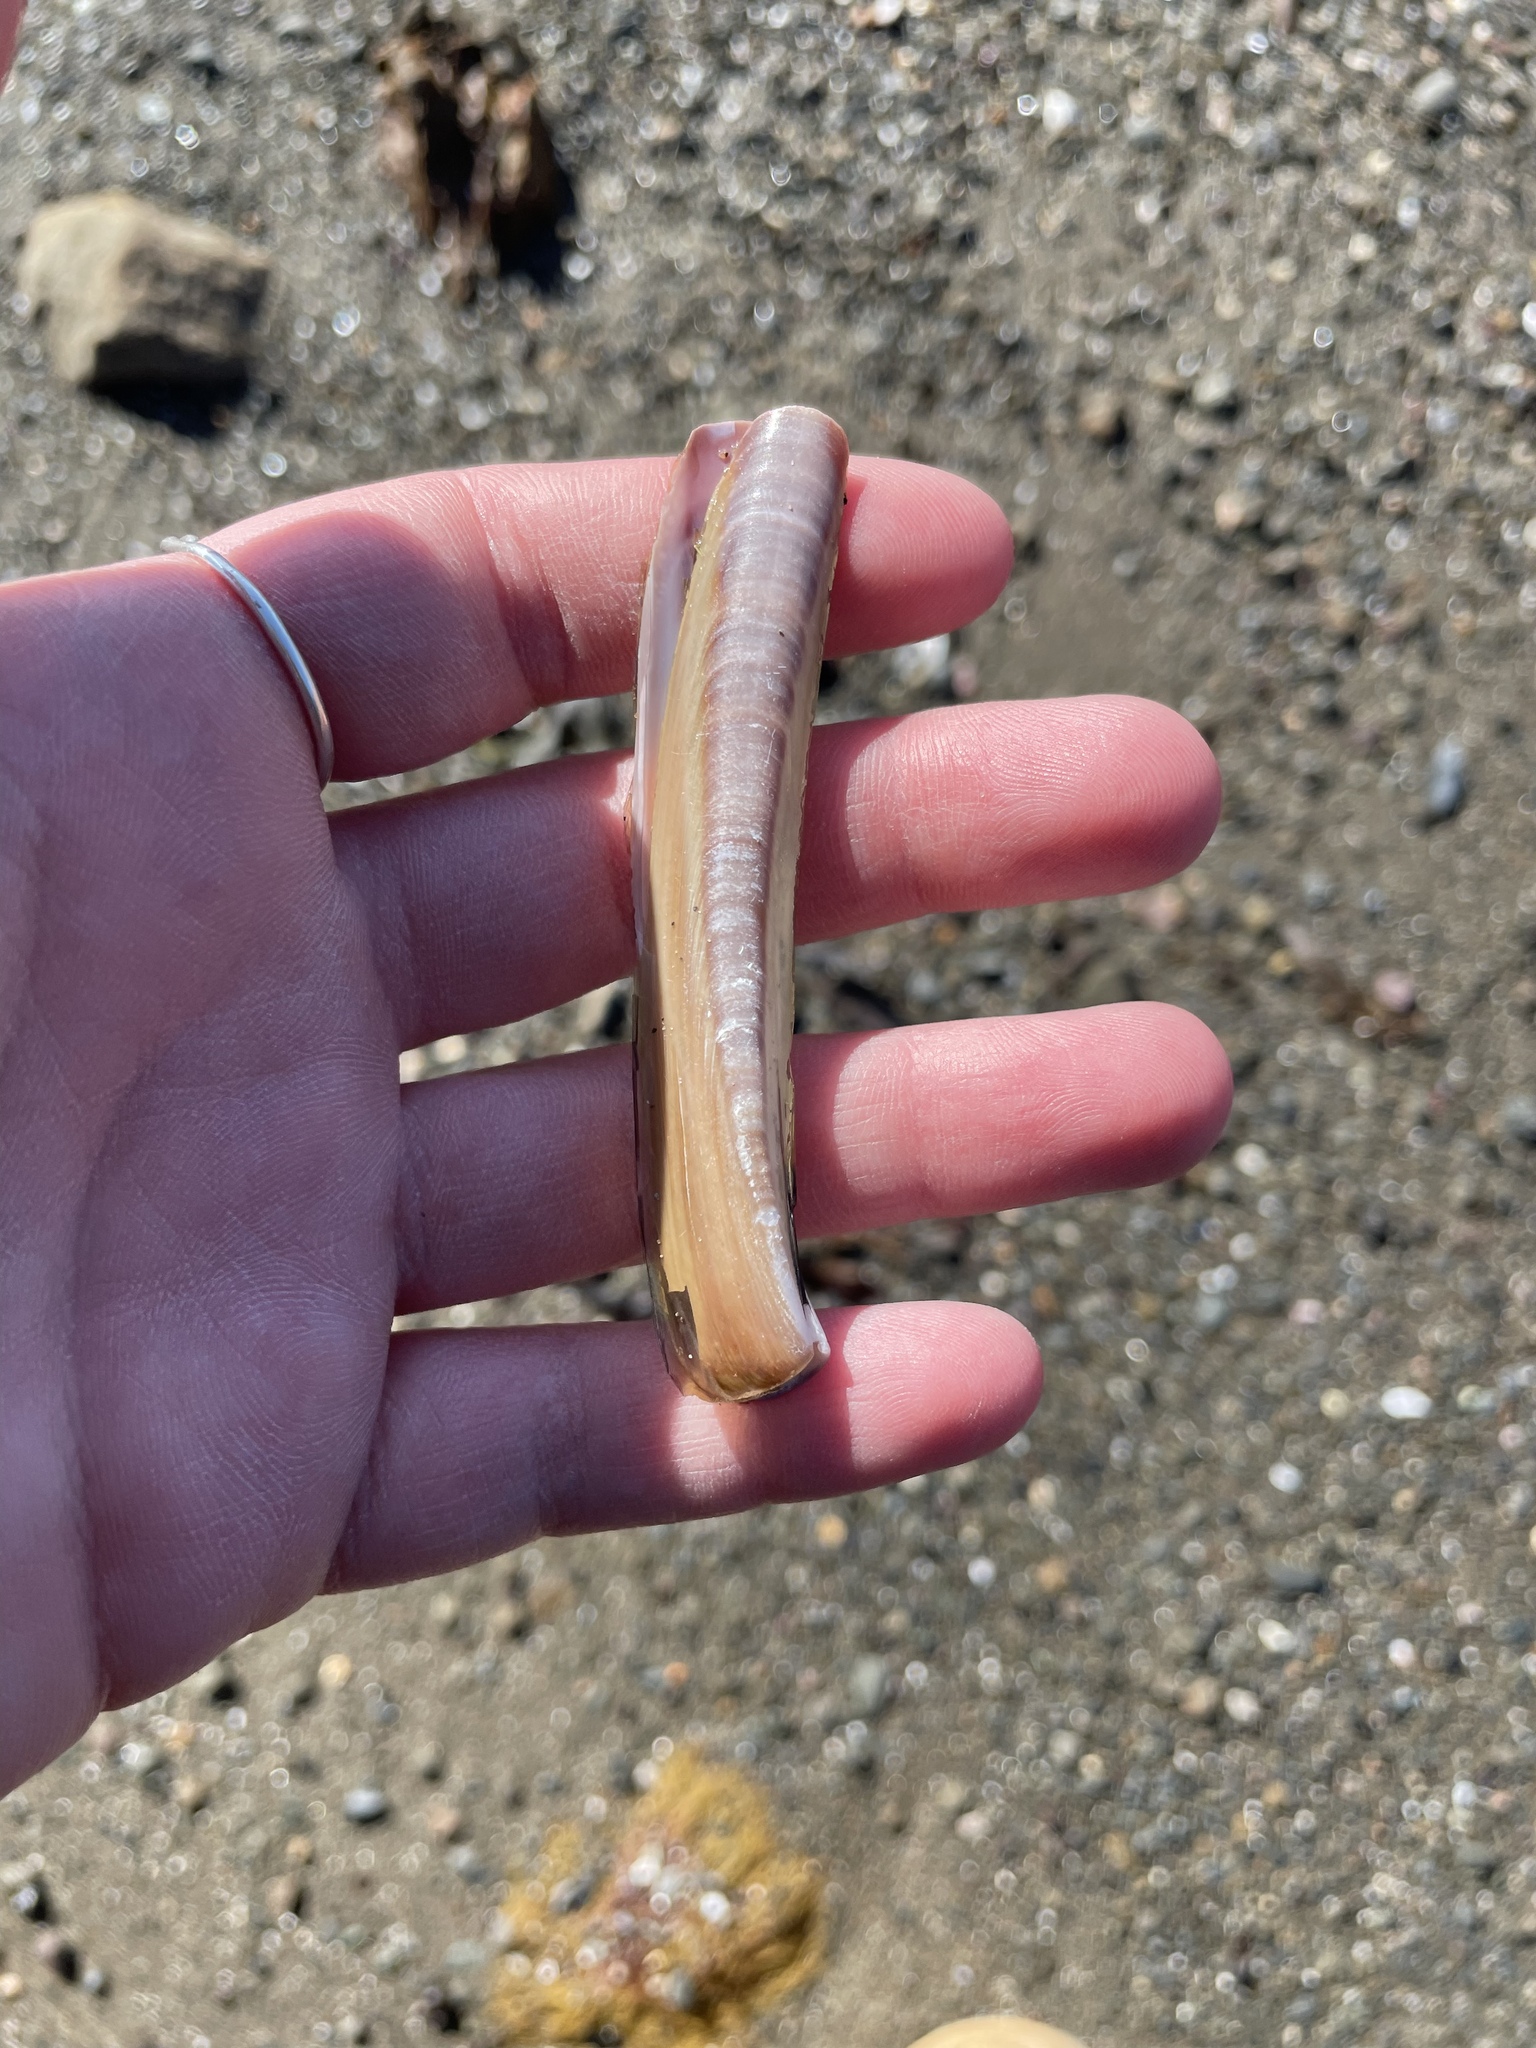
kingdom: Animalia
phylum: Mollusca
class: Bivalvia
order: Adapedonta
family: Pharidae
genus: Ensis
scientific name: Ensis leei
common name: American jack knife clam
